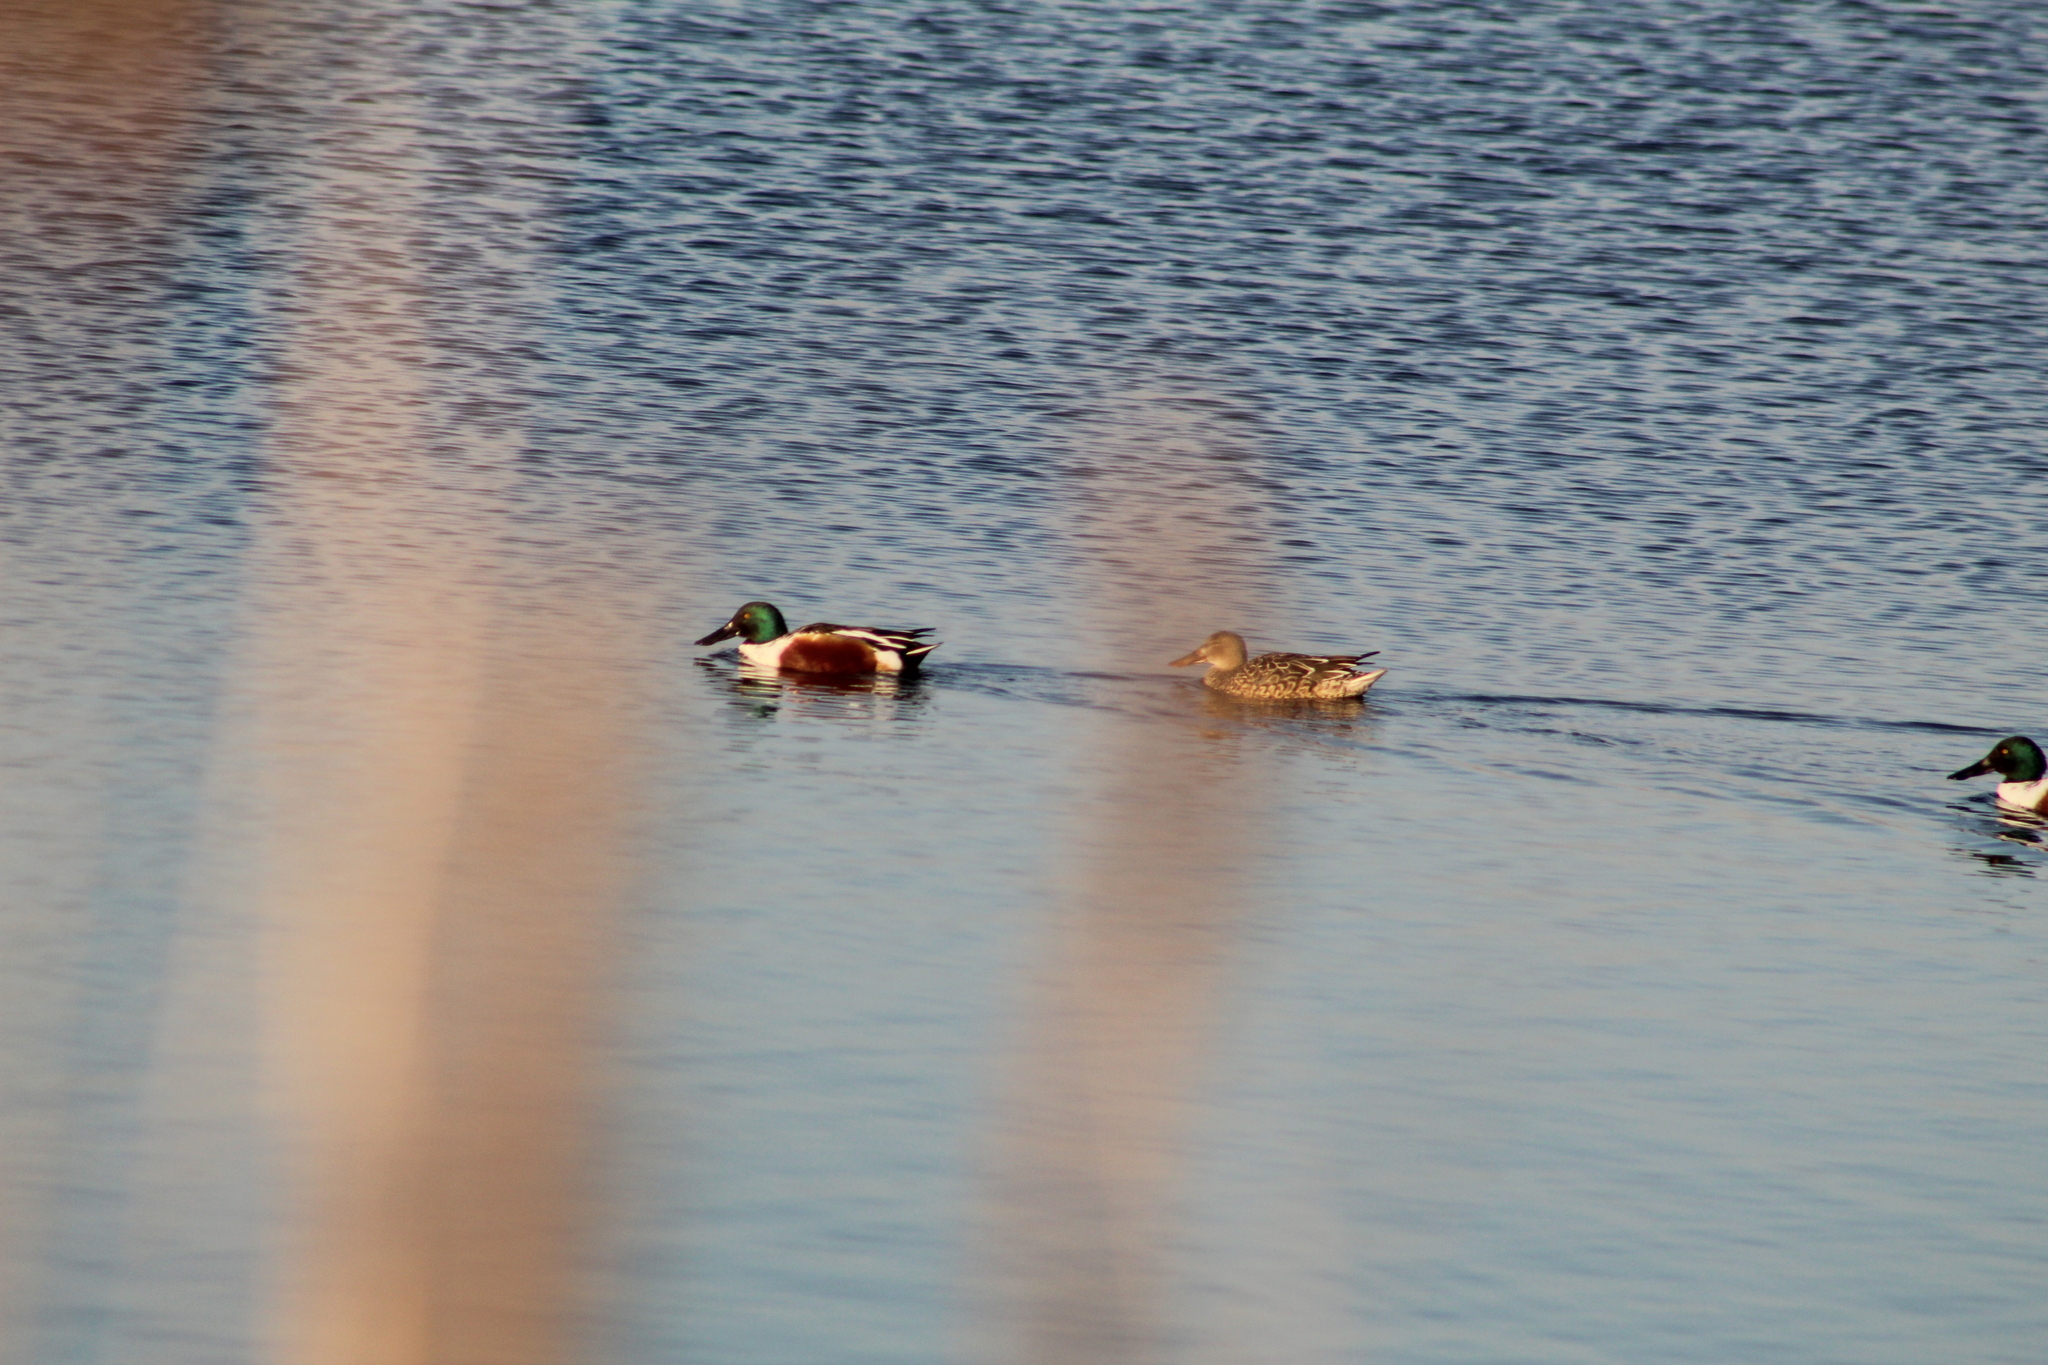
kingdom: Animalia
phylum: Chordata
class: Aves
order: Anseriformes
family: Anatidae
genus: Spatula
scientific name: Spatula clypeata
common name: Northern shoveler
